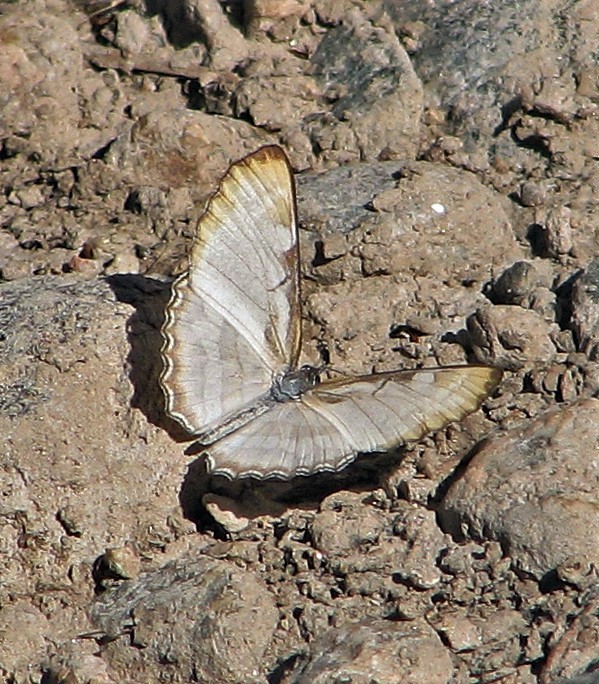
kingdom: Animalia
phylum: Arthropoda
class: Insecta
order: Lepidoptera
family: Nymphalidae
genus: Mestra
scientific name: Mestra hersilia
